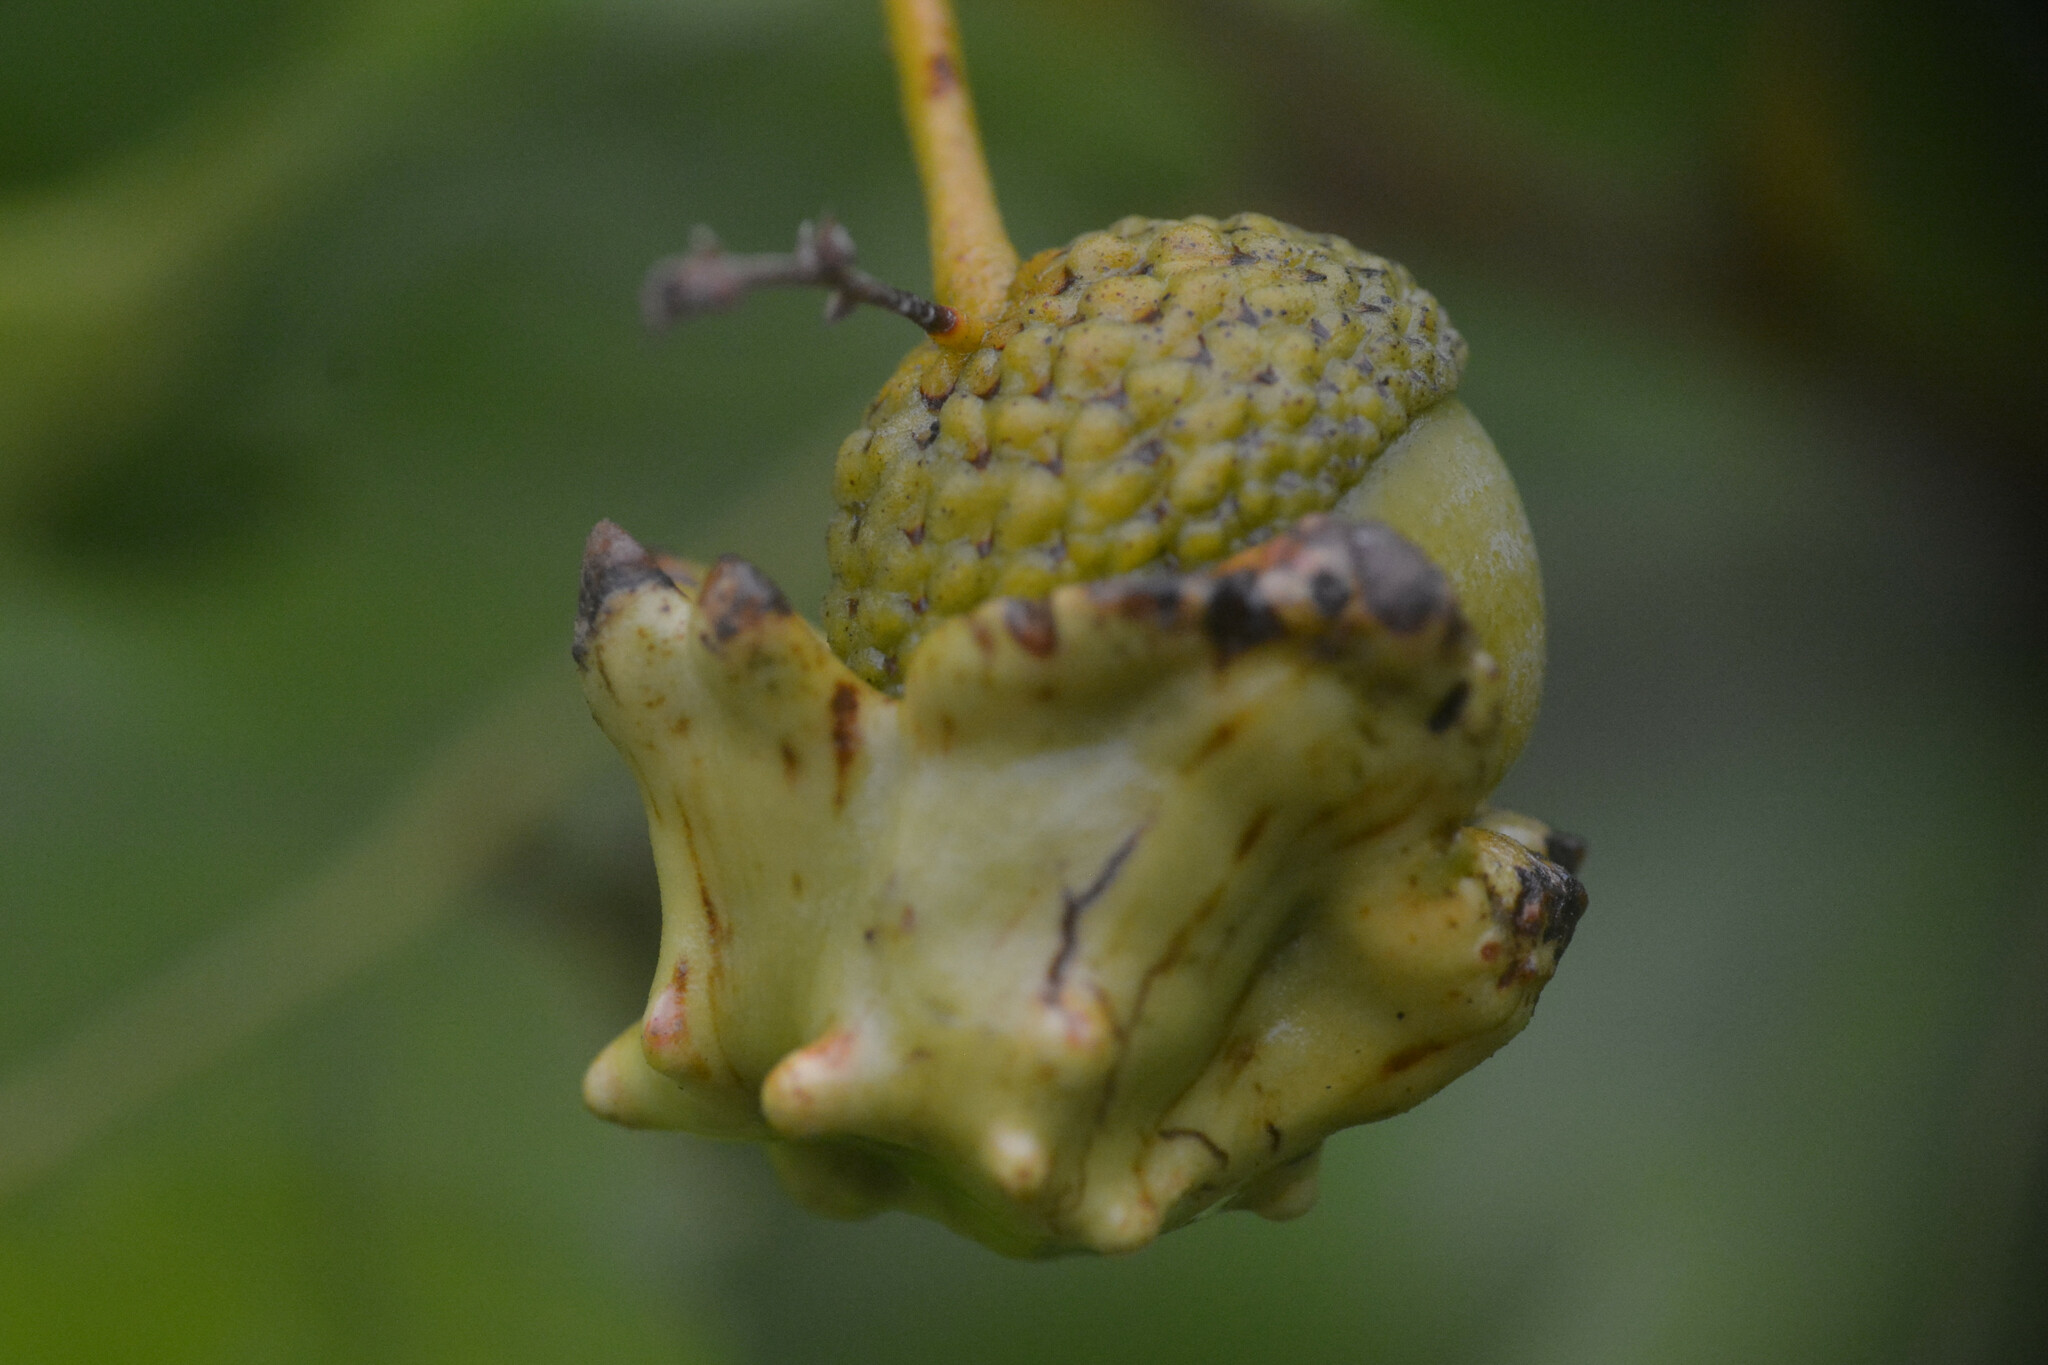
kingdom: Animalia
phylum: Arthropoda
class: Insecta
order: Hymenoptera
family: Cynipidae
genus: Andricus
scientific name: Andricus quercuscalicis
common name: Knopper gall
